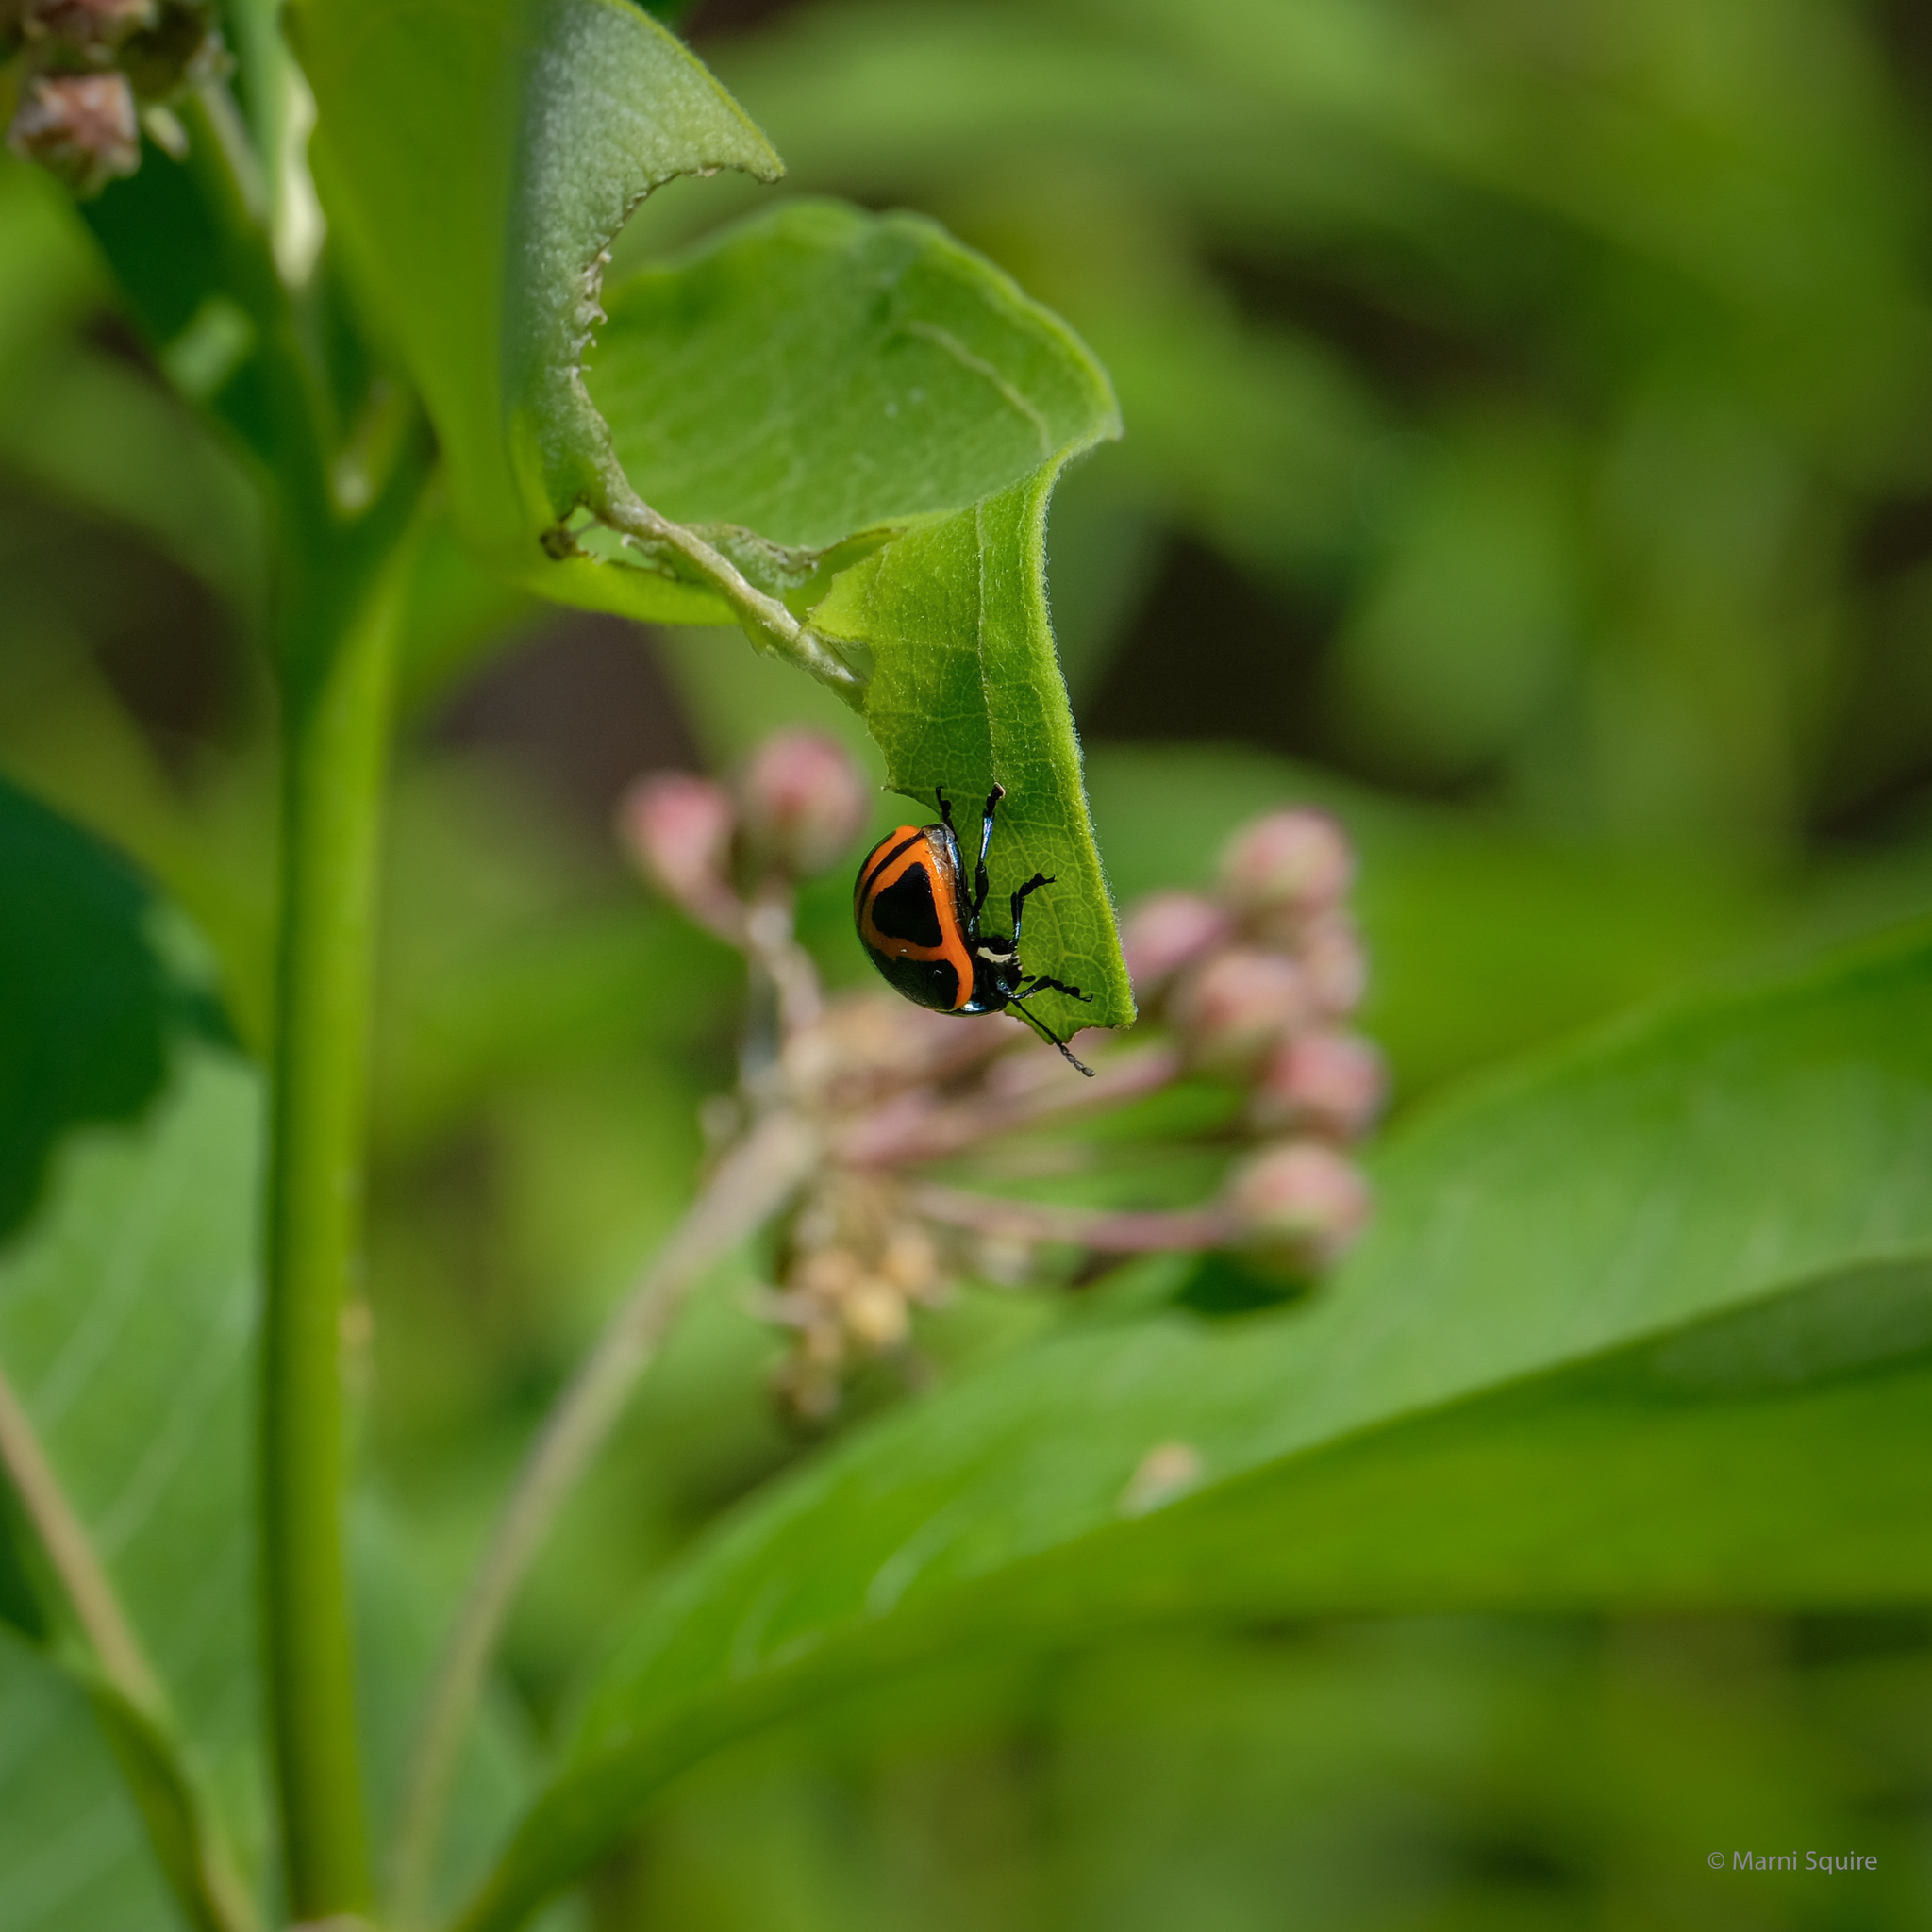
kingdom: Animalia
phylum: Arthropoda
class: Insecta
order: Coleoptera
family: Chrysomelidae
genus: Labidomera
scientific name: Labidomera clivicollis
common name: Swamp milkweed leaf beetle
